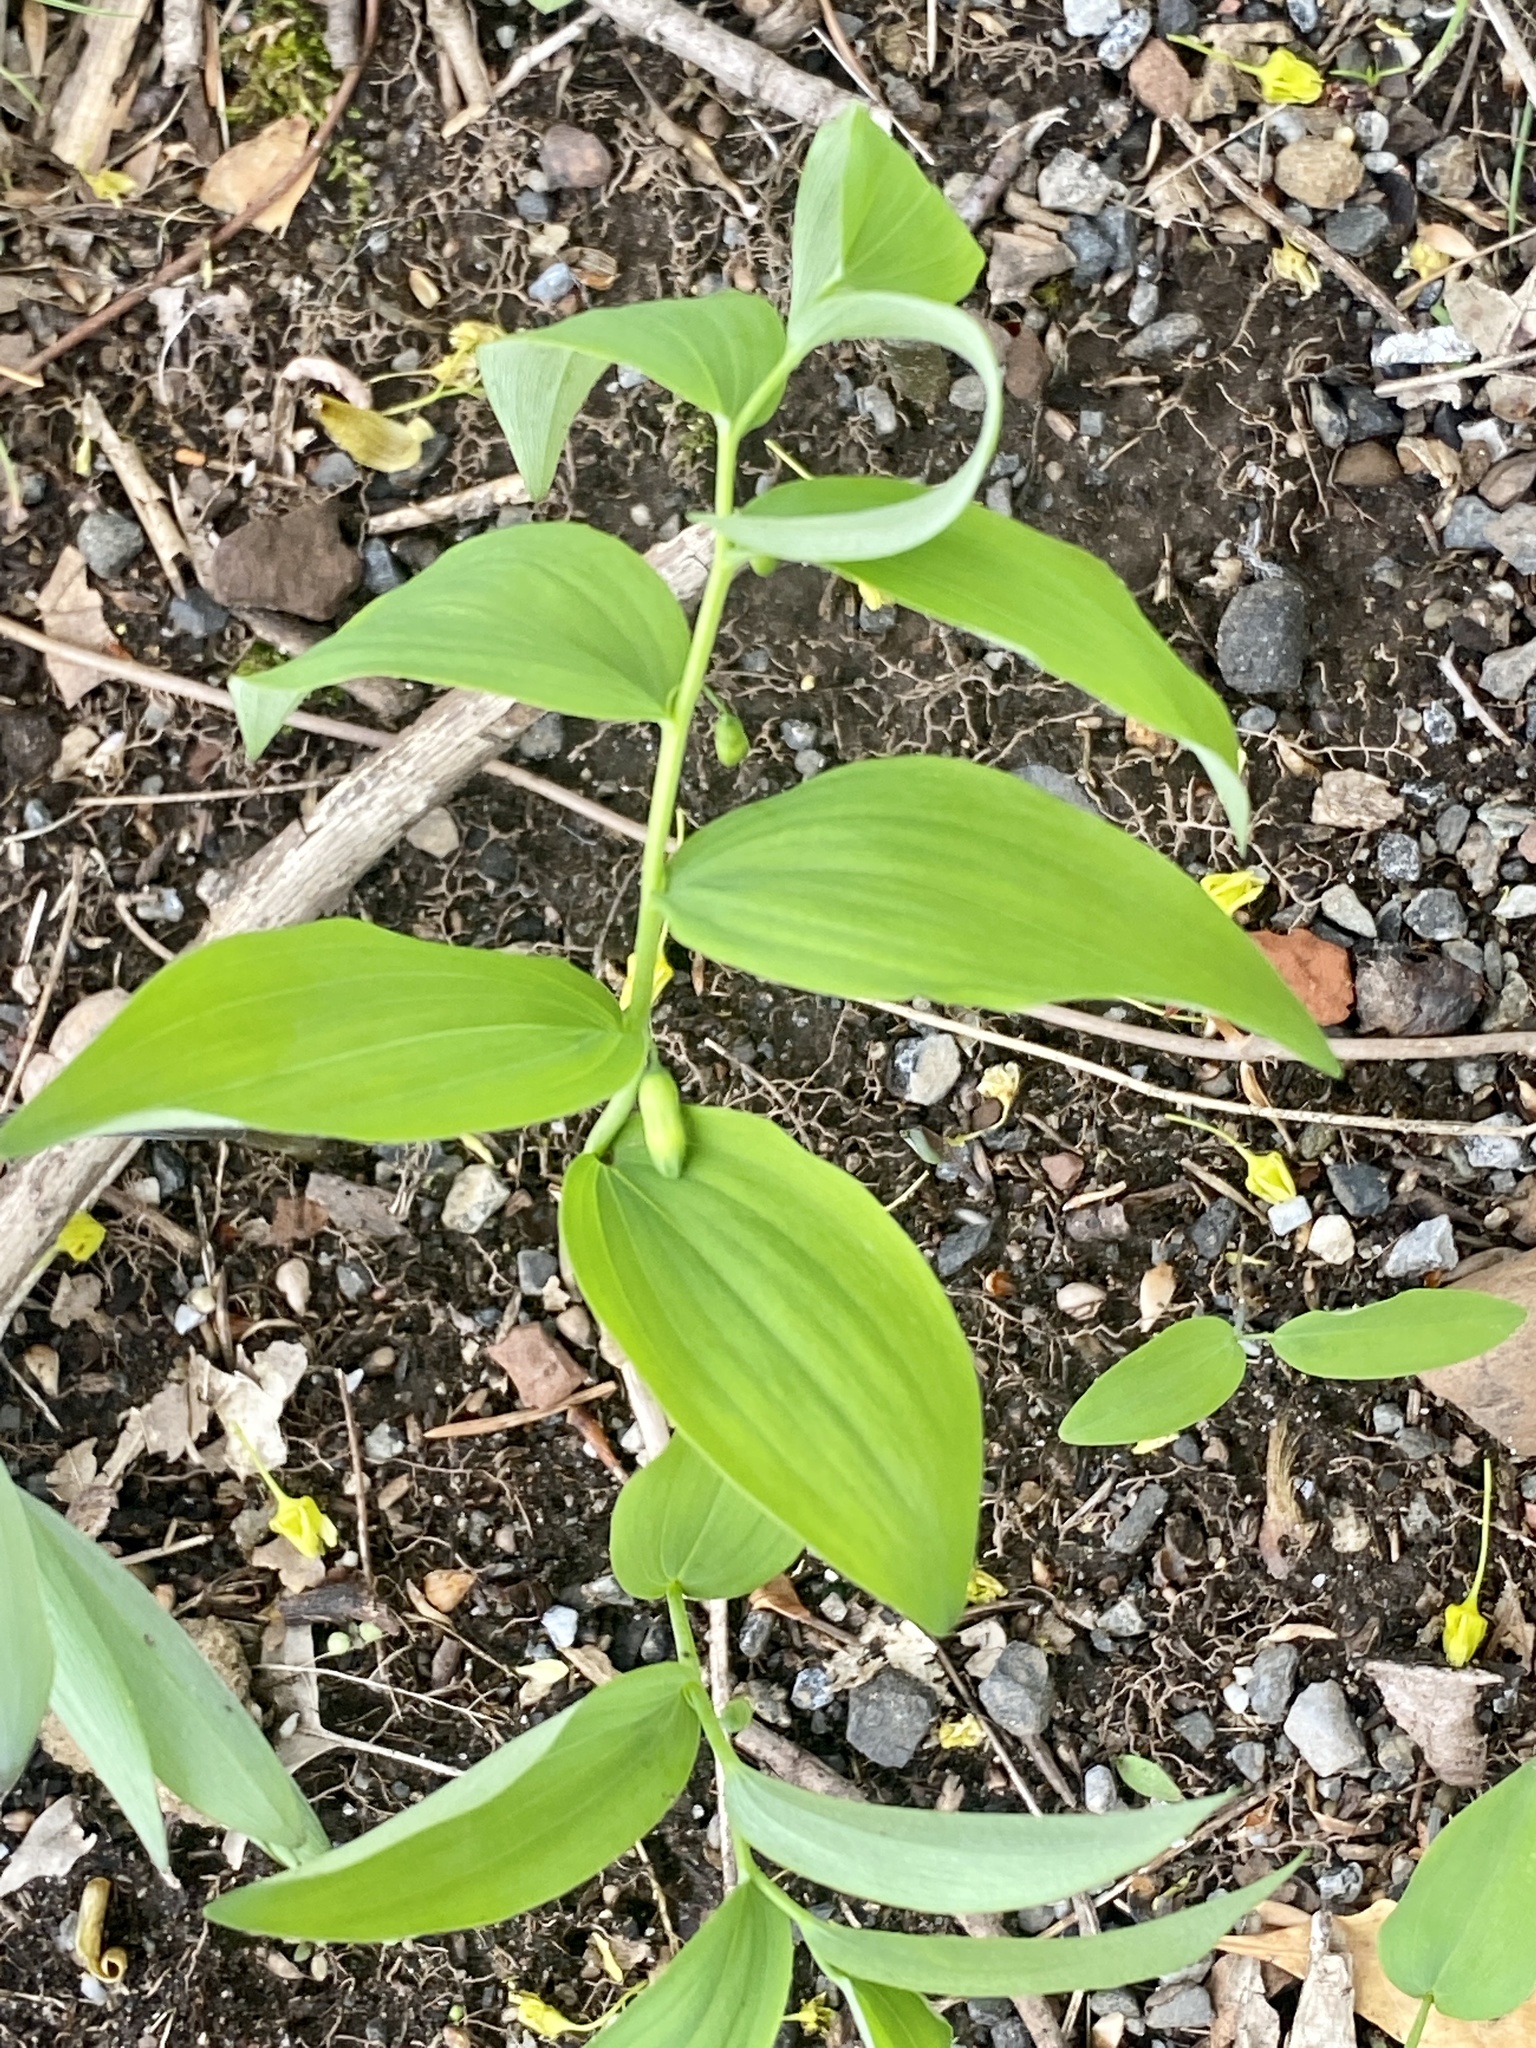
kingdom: Plantae
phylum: Tracheophyta
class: Liliopsida
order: Asparagales
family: Asparagaceae
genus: Polygonatum
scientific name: Polygonatum pubescens
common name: Downy solomon's seal
